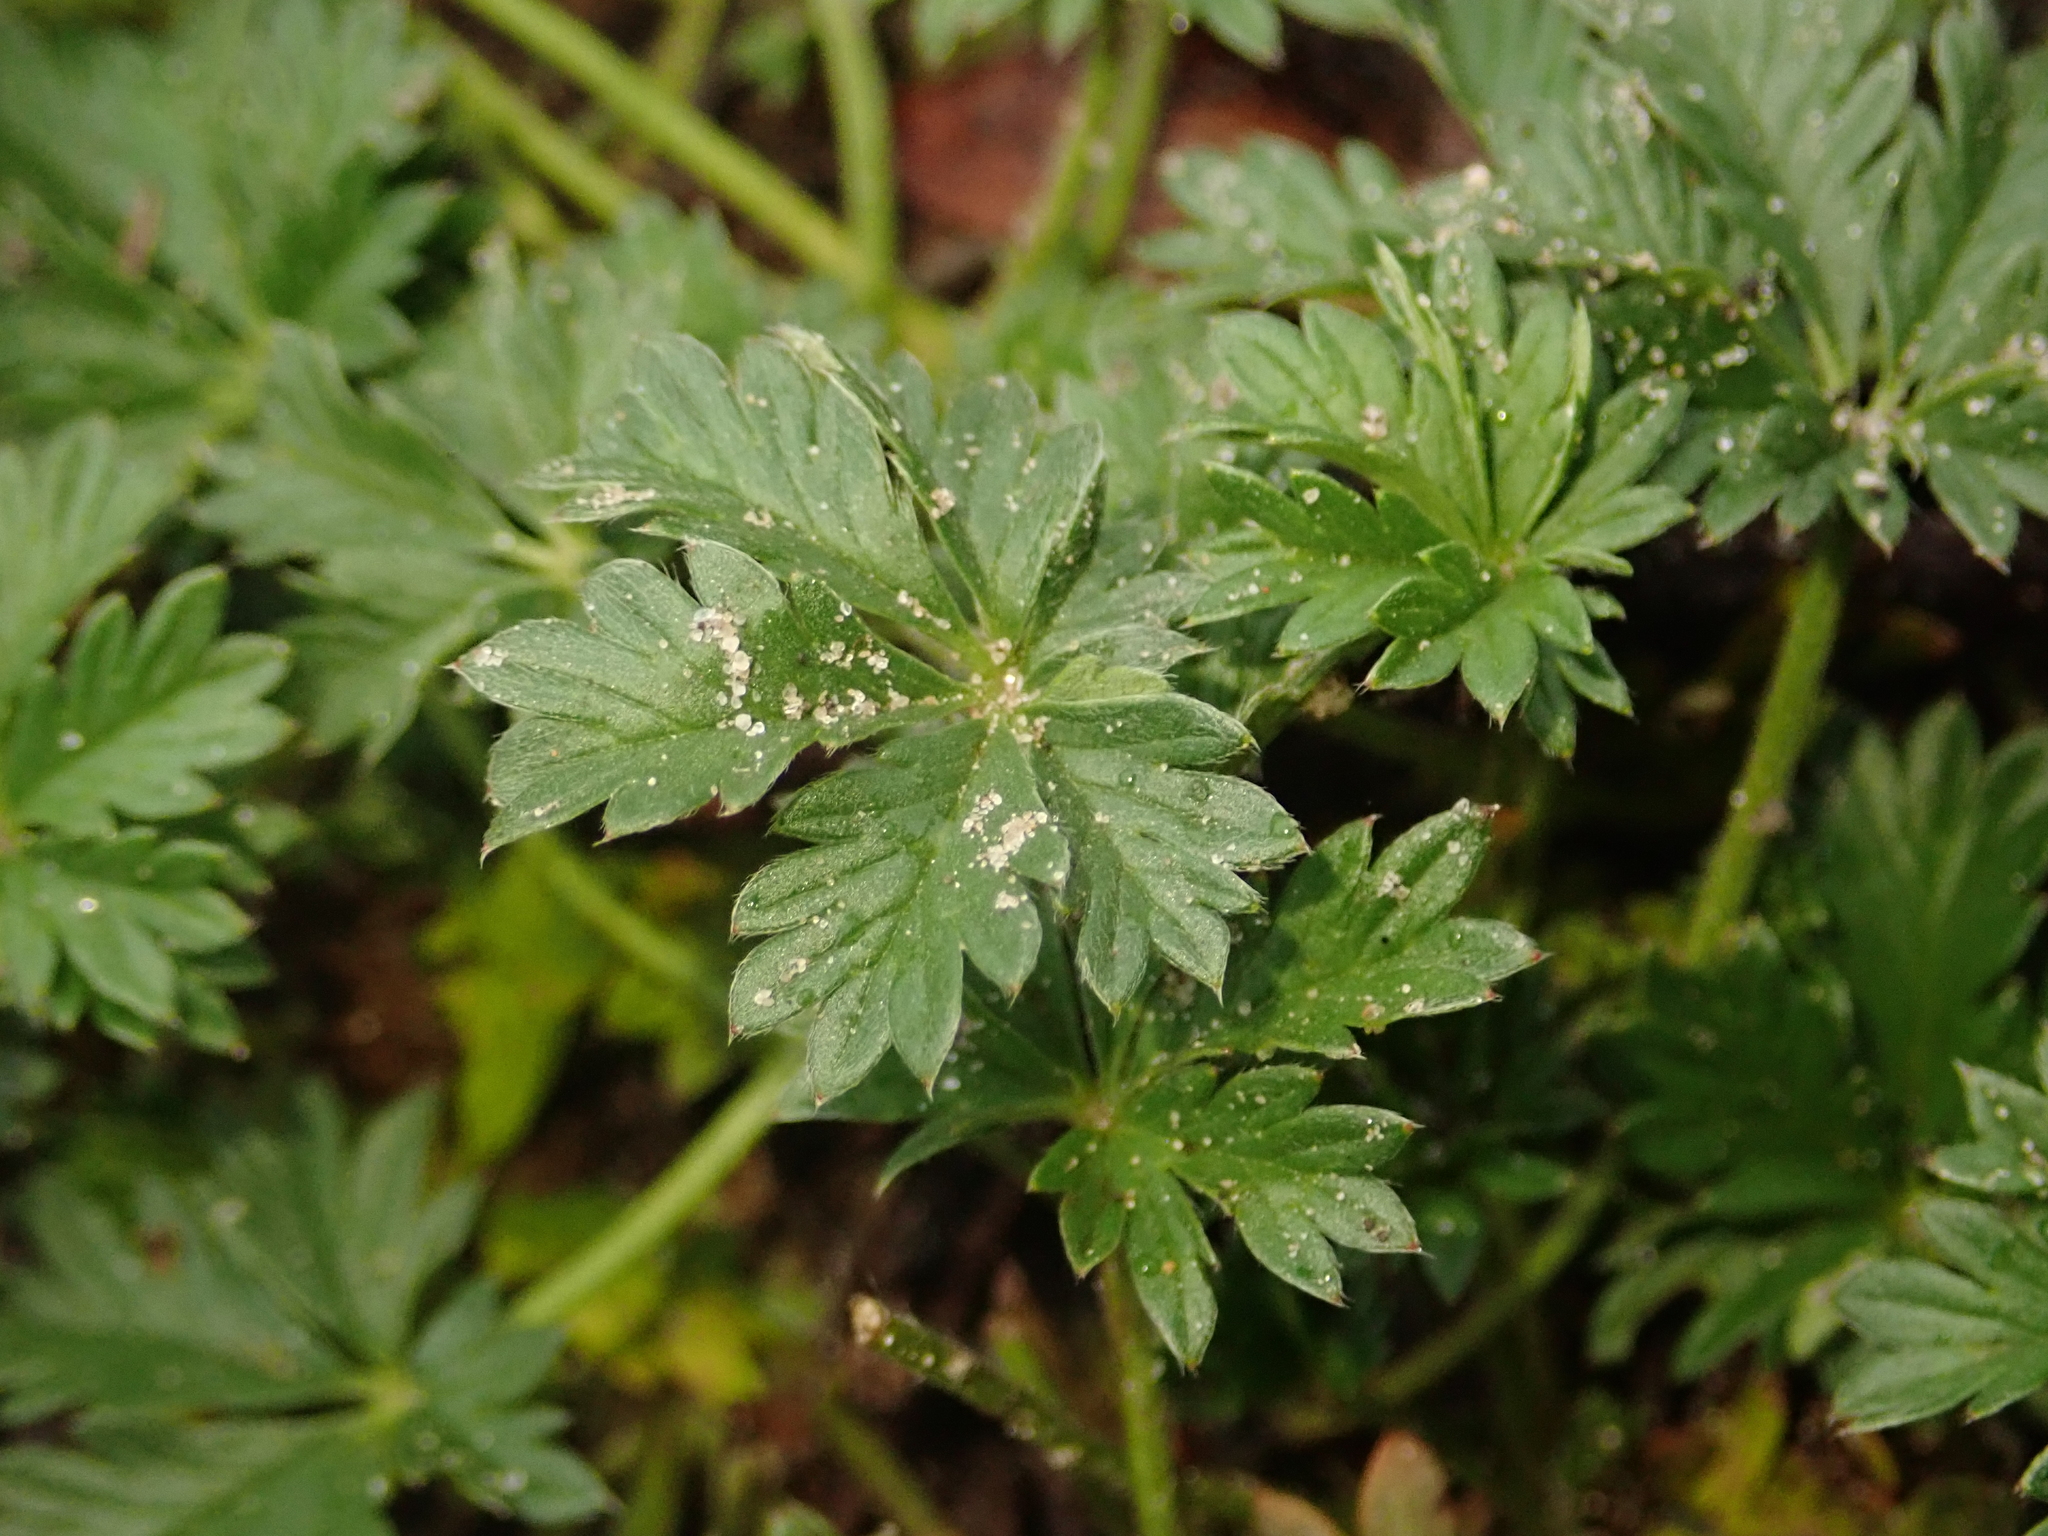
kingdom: Plantae
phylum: Tracheophyta
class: Magnoliopsida
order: Rosales
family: Rosaceae
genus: Potentilla
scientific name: Potentilla argentea
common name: Hoary cinquefoil
